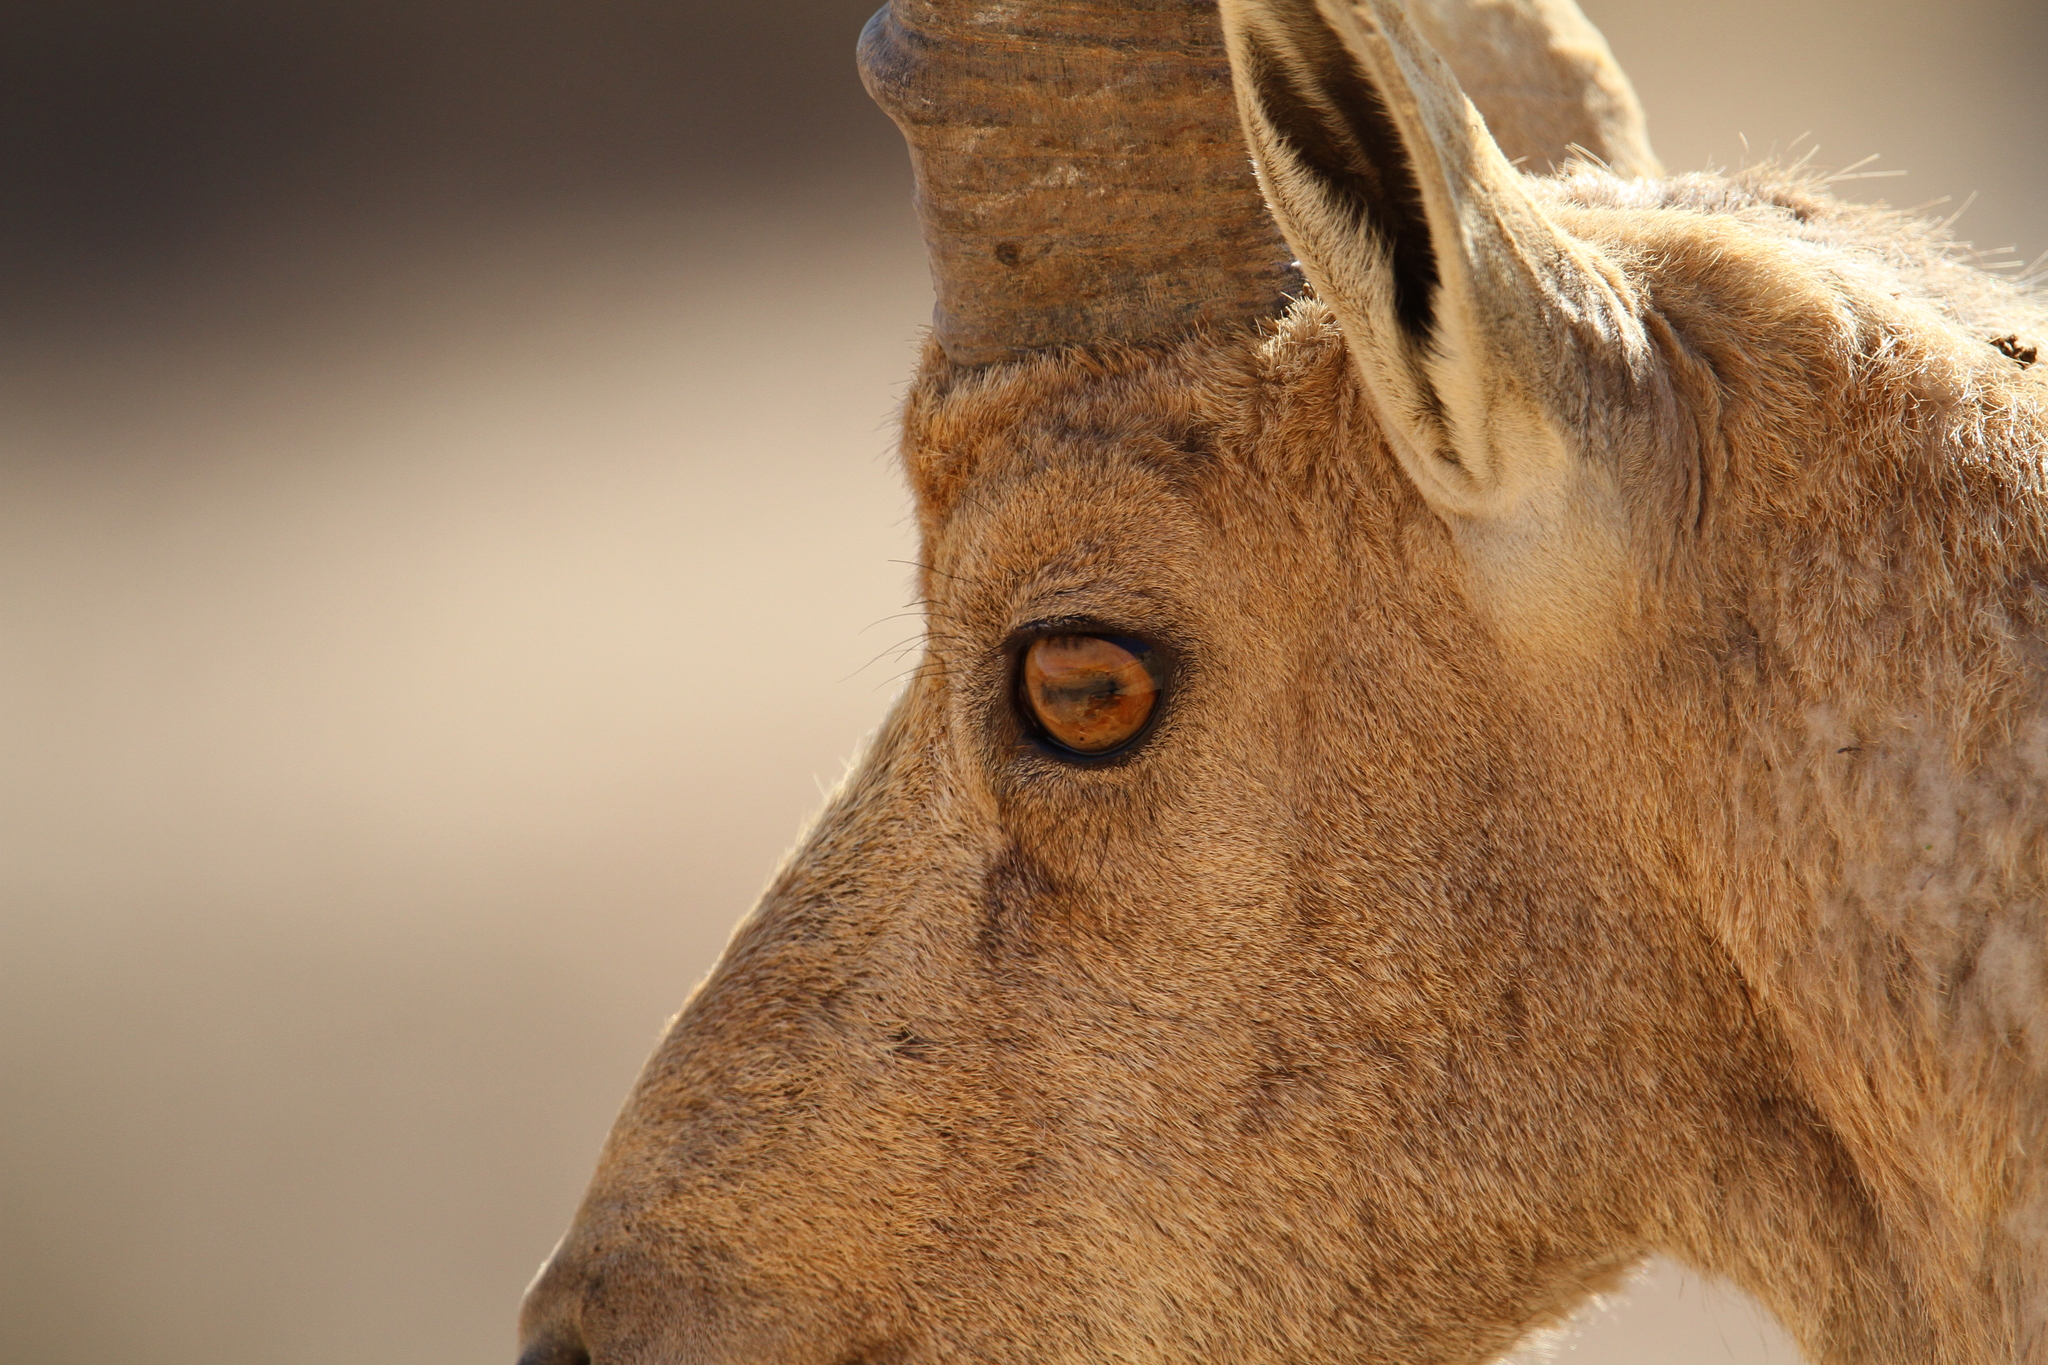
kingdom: Animalia
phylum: Chordata
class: Mammalia
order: Artiodactyla
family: Bovidae
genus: Capra
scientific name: Capra nubiana
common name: Nubian ibex
